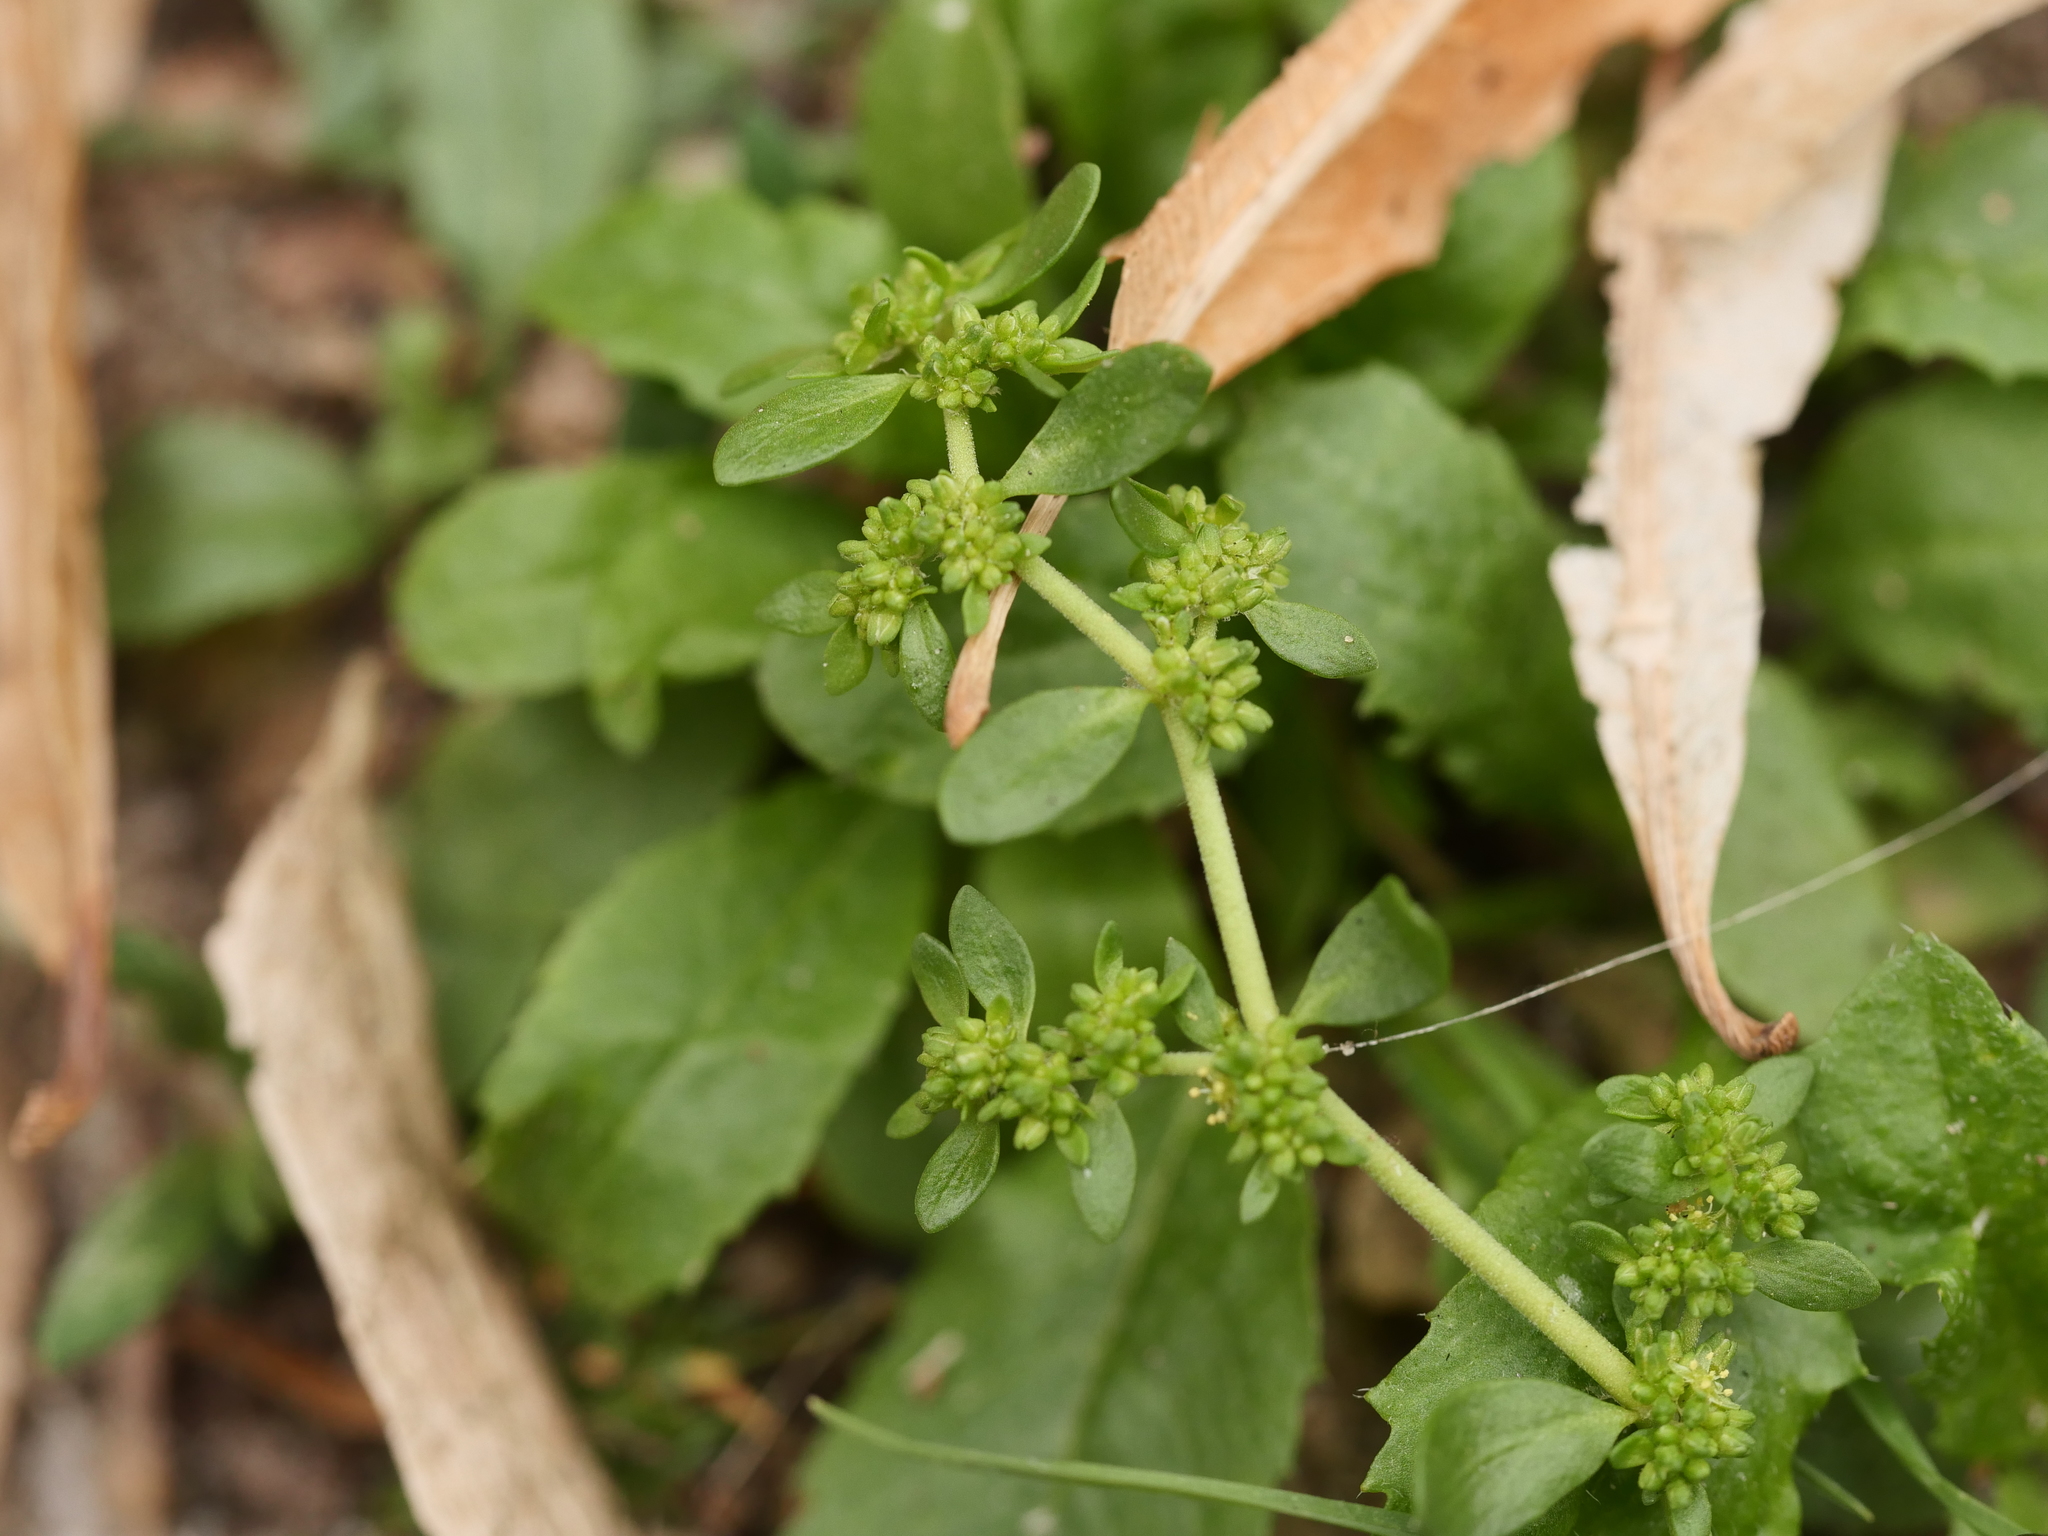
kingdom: Plantae
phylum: Tracheophyta
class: Magnoliopsida
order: Caryophyllales
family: Caryophyllaceae
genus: Herniaria
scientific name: Herniaria glabra
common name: Smooth rupturewort
